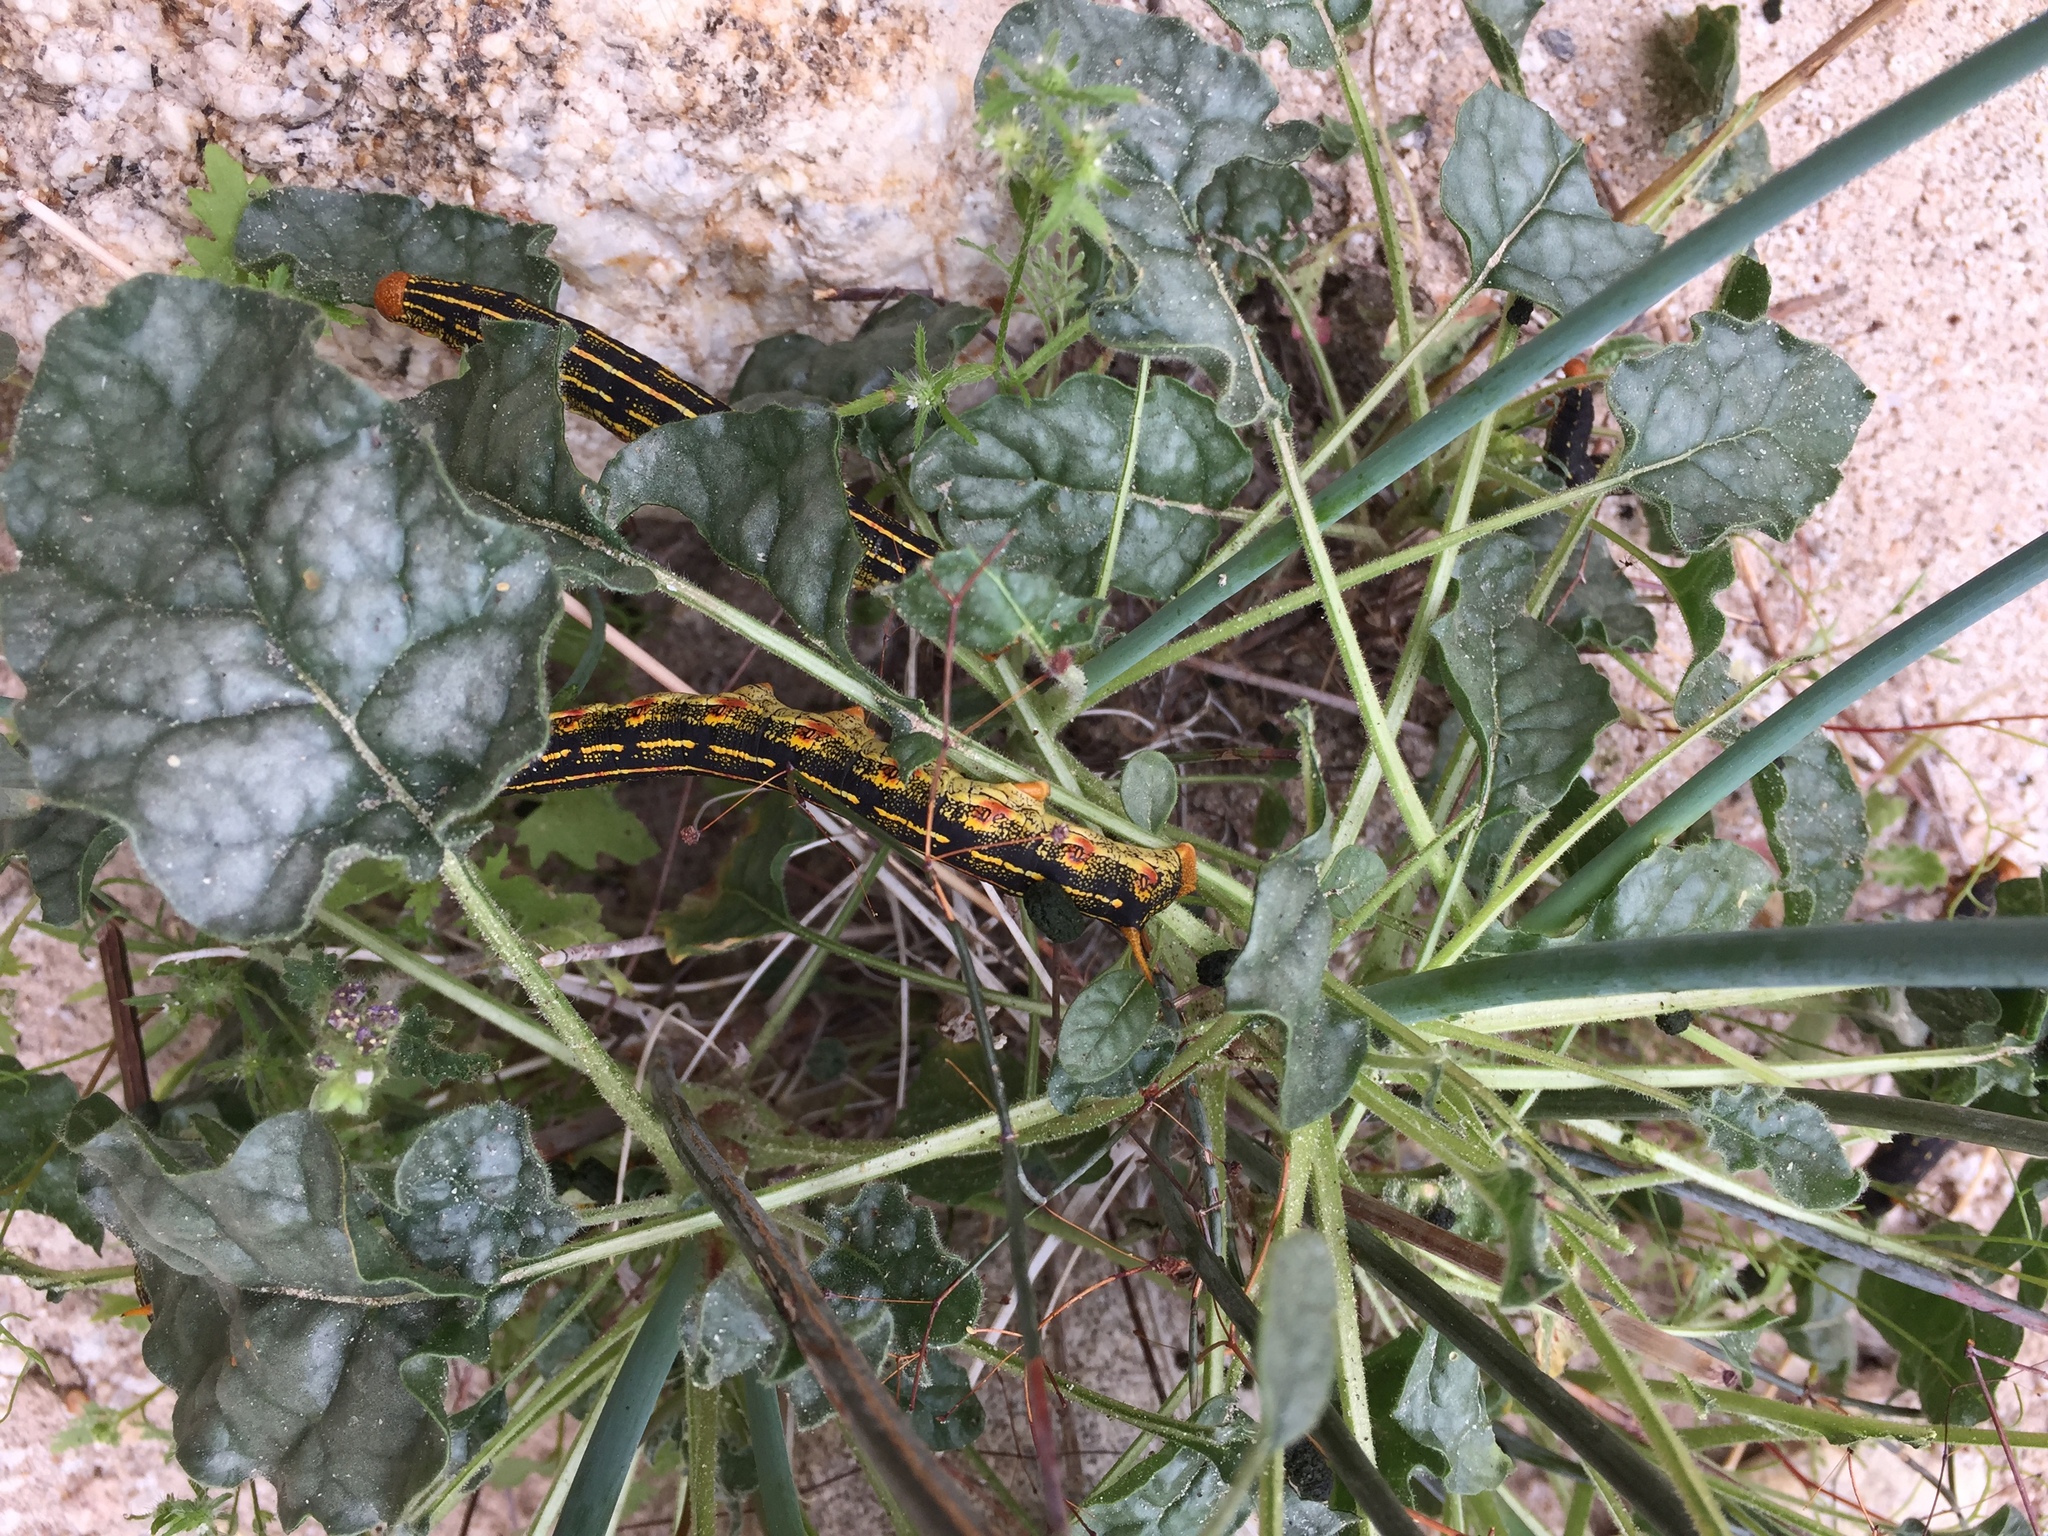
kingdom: Animalia
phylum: Arthropoda
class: Insecta
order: Lepidoptera
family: Sphingidae
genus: Hyles
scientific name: Hyles lineata
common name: White-lined sphinx
